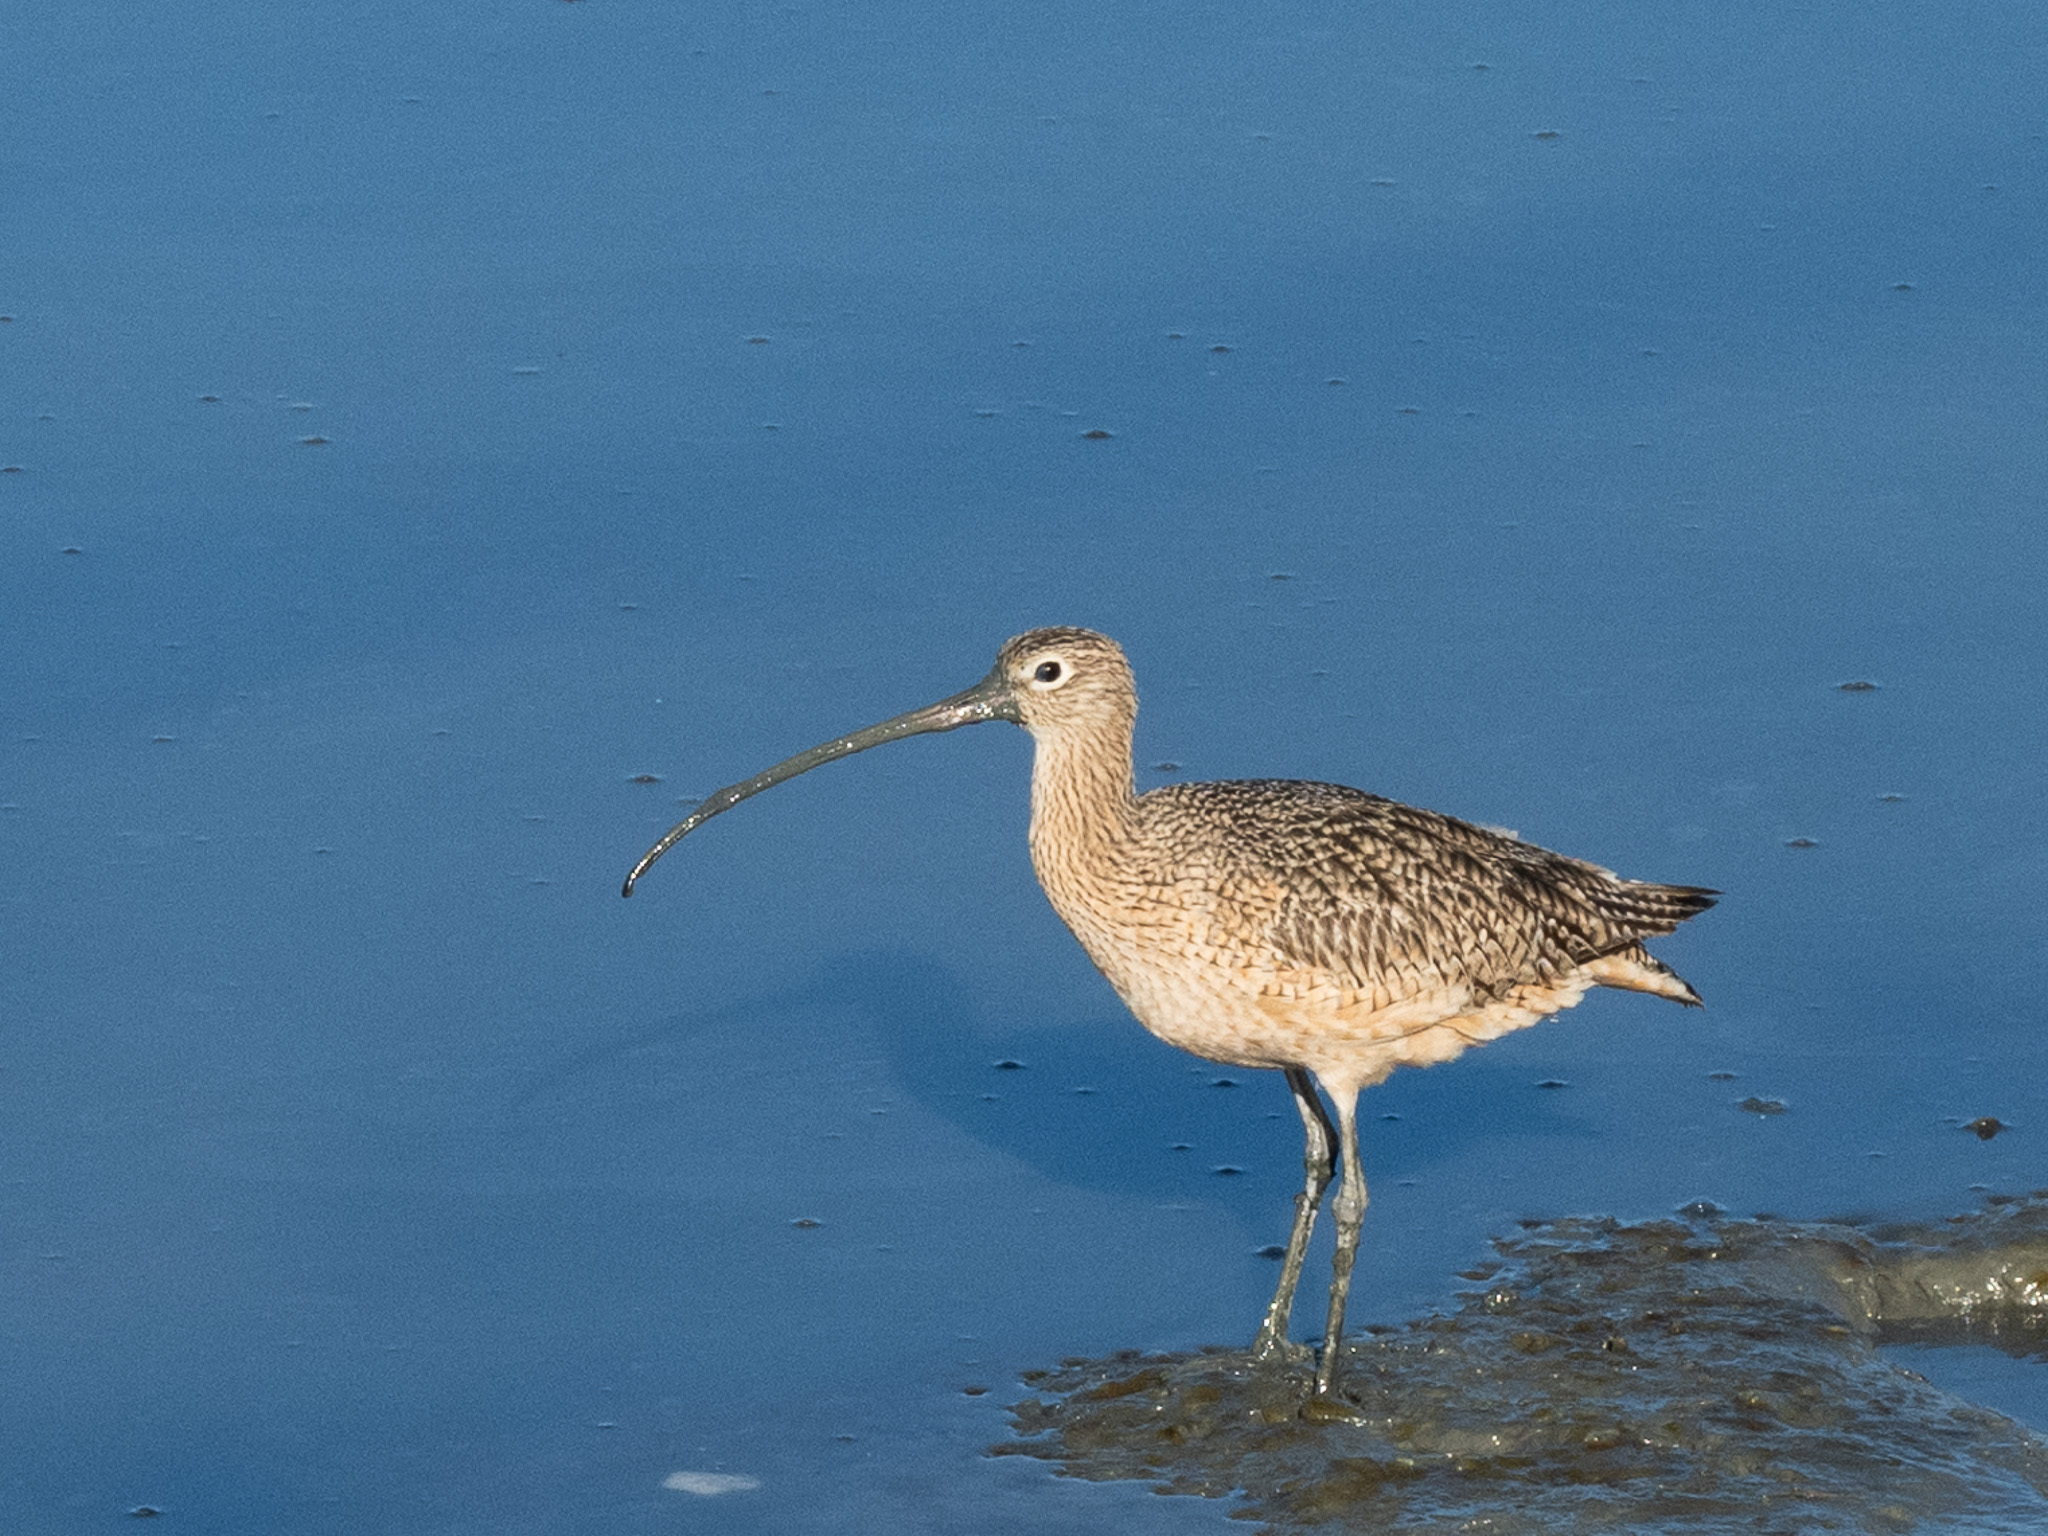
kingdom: Animalia
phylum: Chordata
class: Aves
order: Charadriiformes
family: Scolopacidae
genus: Numenius
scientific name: Numenius americanus
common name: Long-billed curlew
